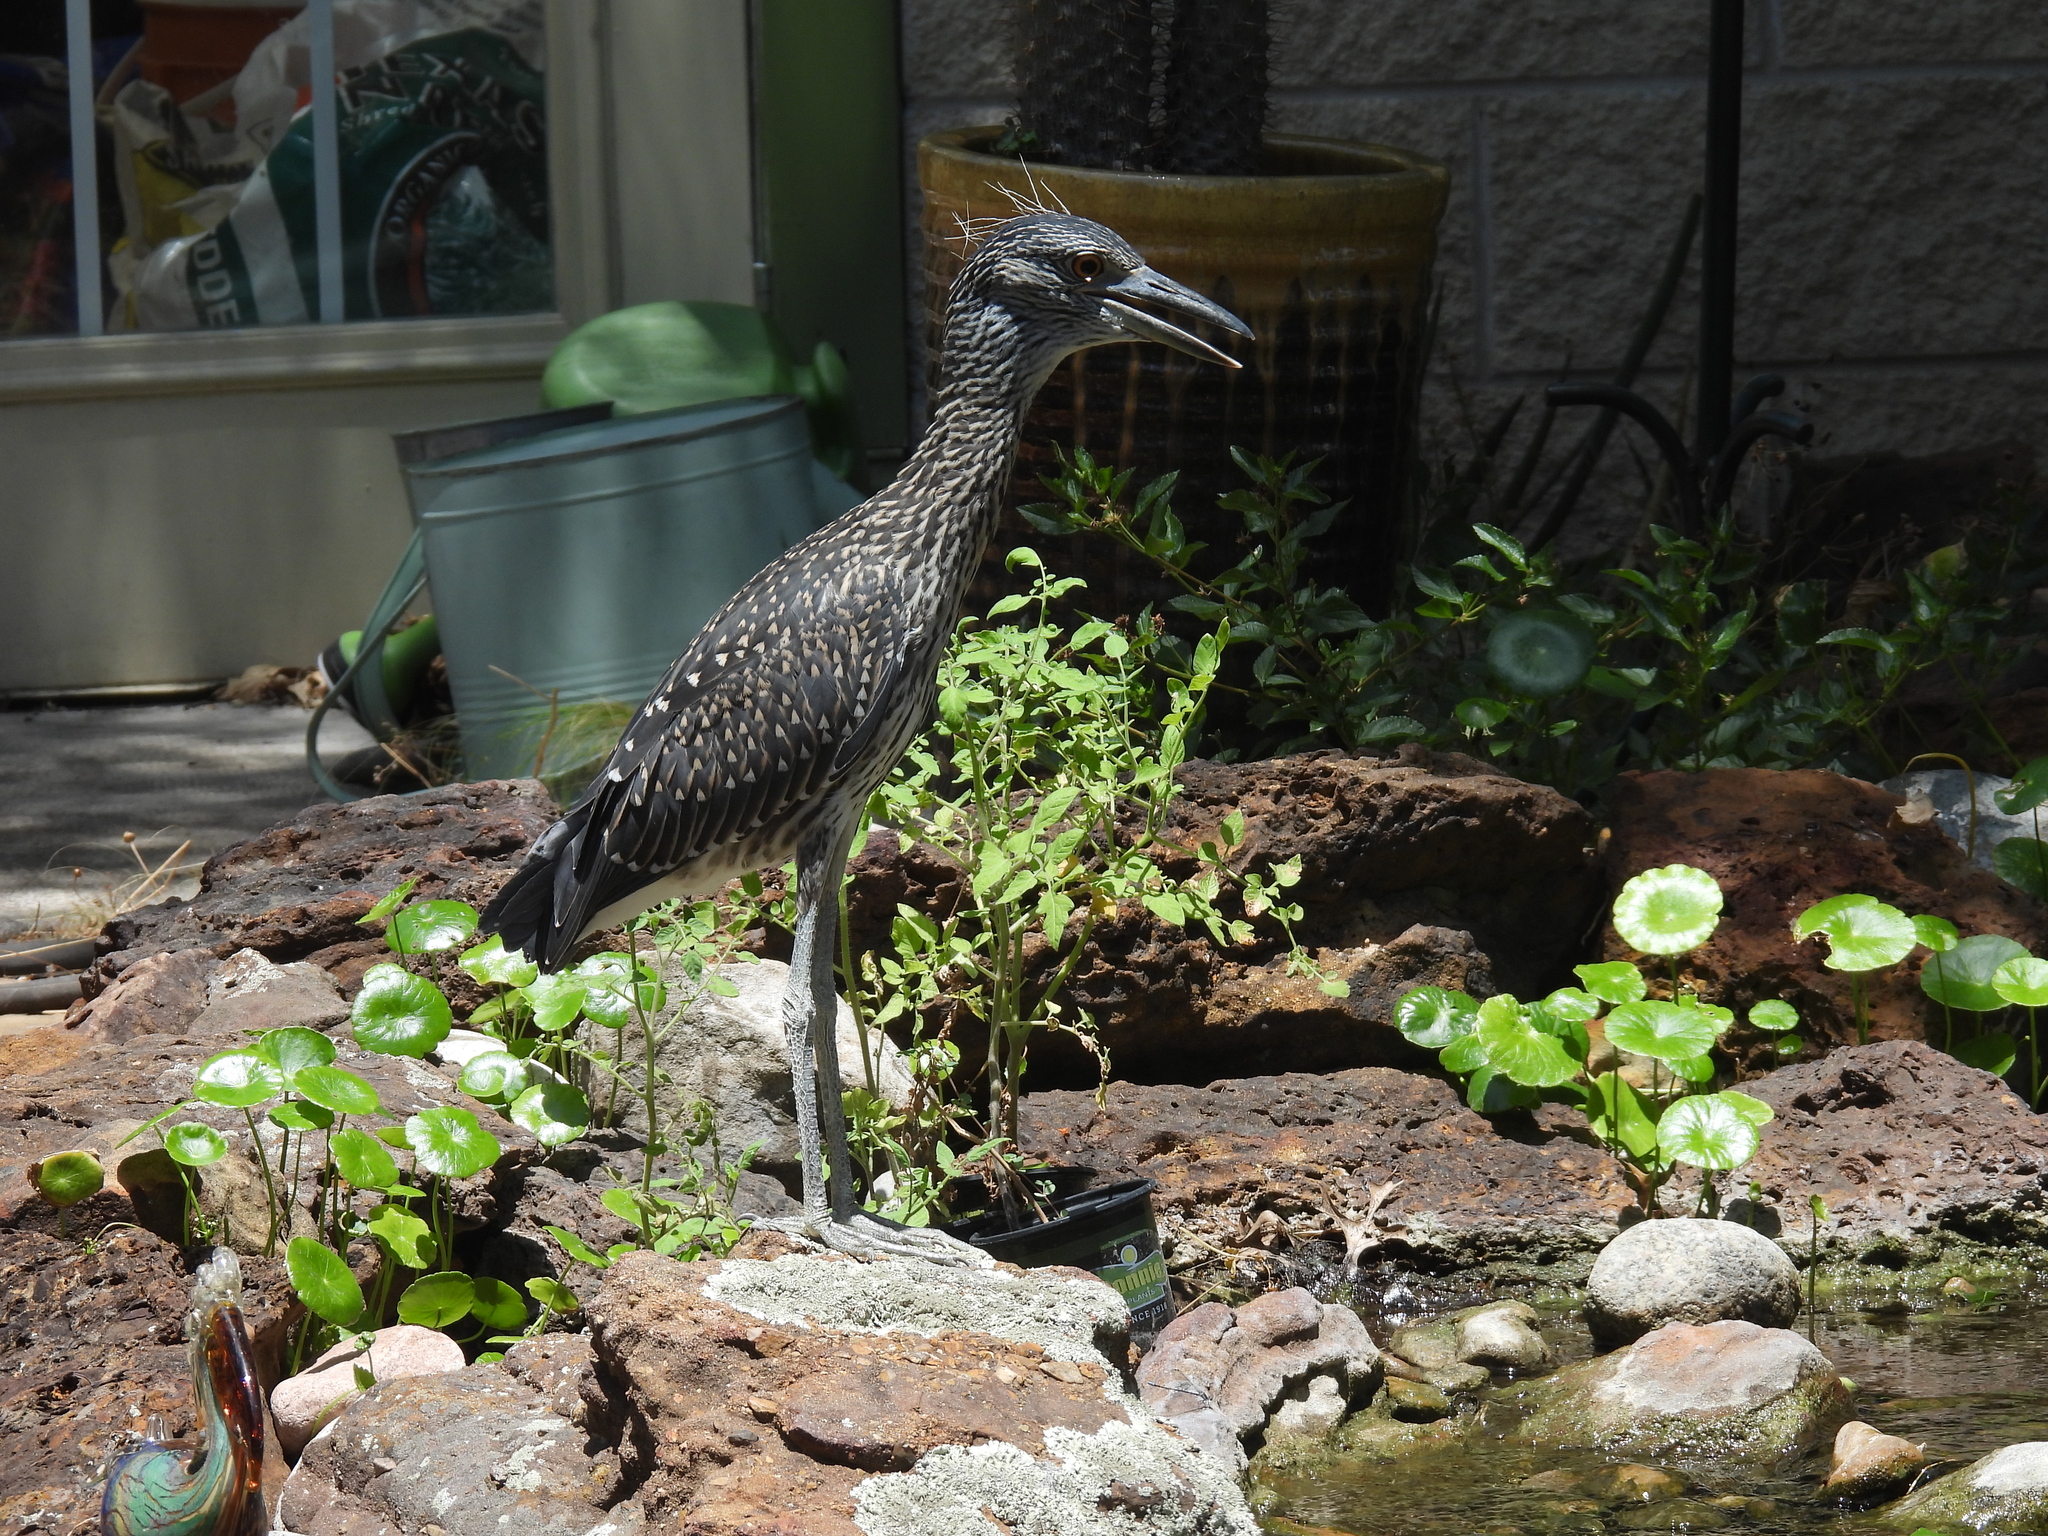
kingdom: Animalia
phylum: Chordata
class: Aves
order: Pelecaniformes
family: Ardeidae
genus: Nyctanassa
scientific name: Nyctanassa violacea
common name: Yellow-crowned night heron
